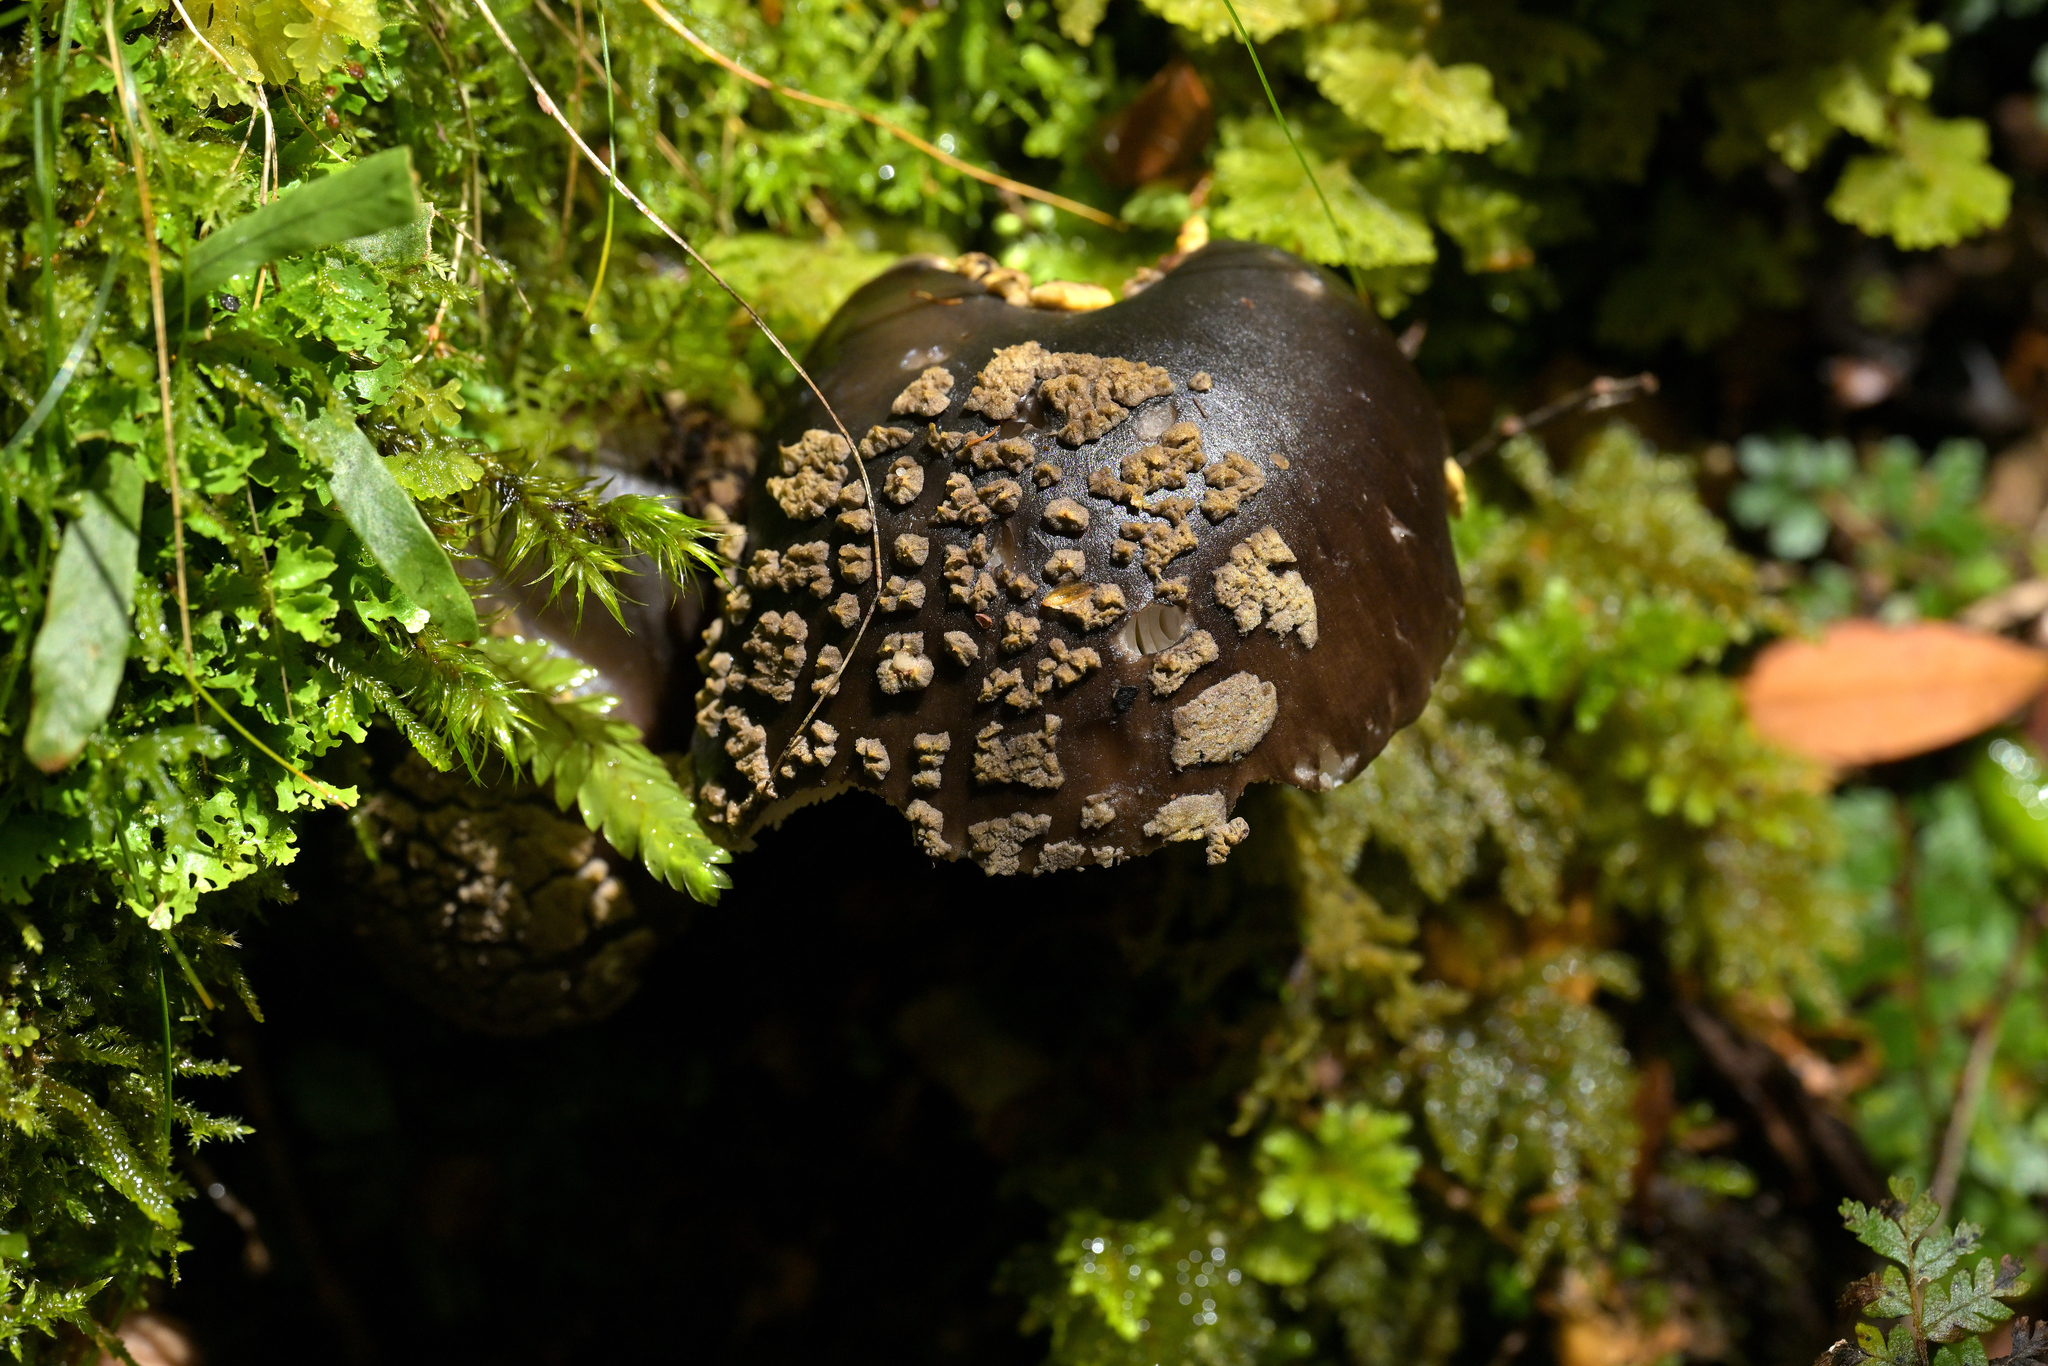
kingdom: Fungi
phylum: Basidiomycota
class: Agaricomycetes
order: Agaricales
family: Amanitaceae
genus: Amanita
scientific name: Amanita nothofagi
